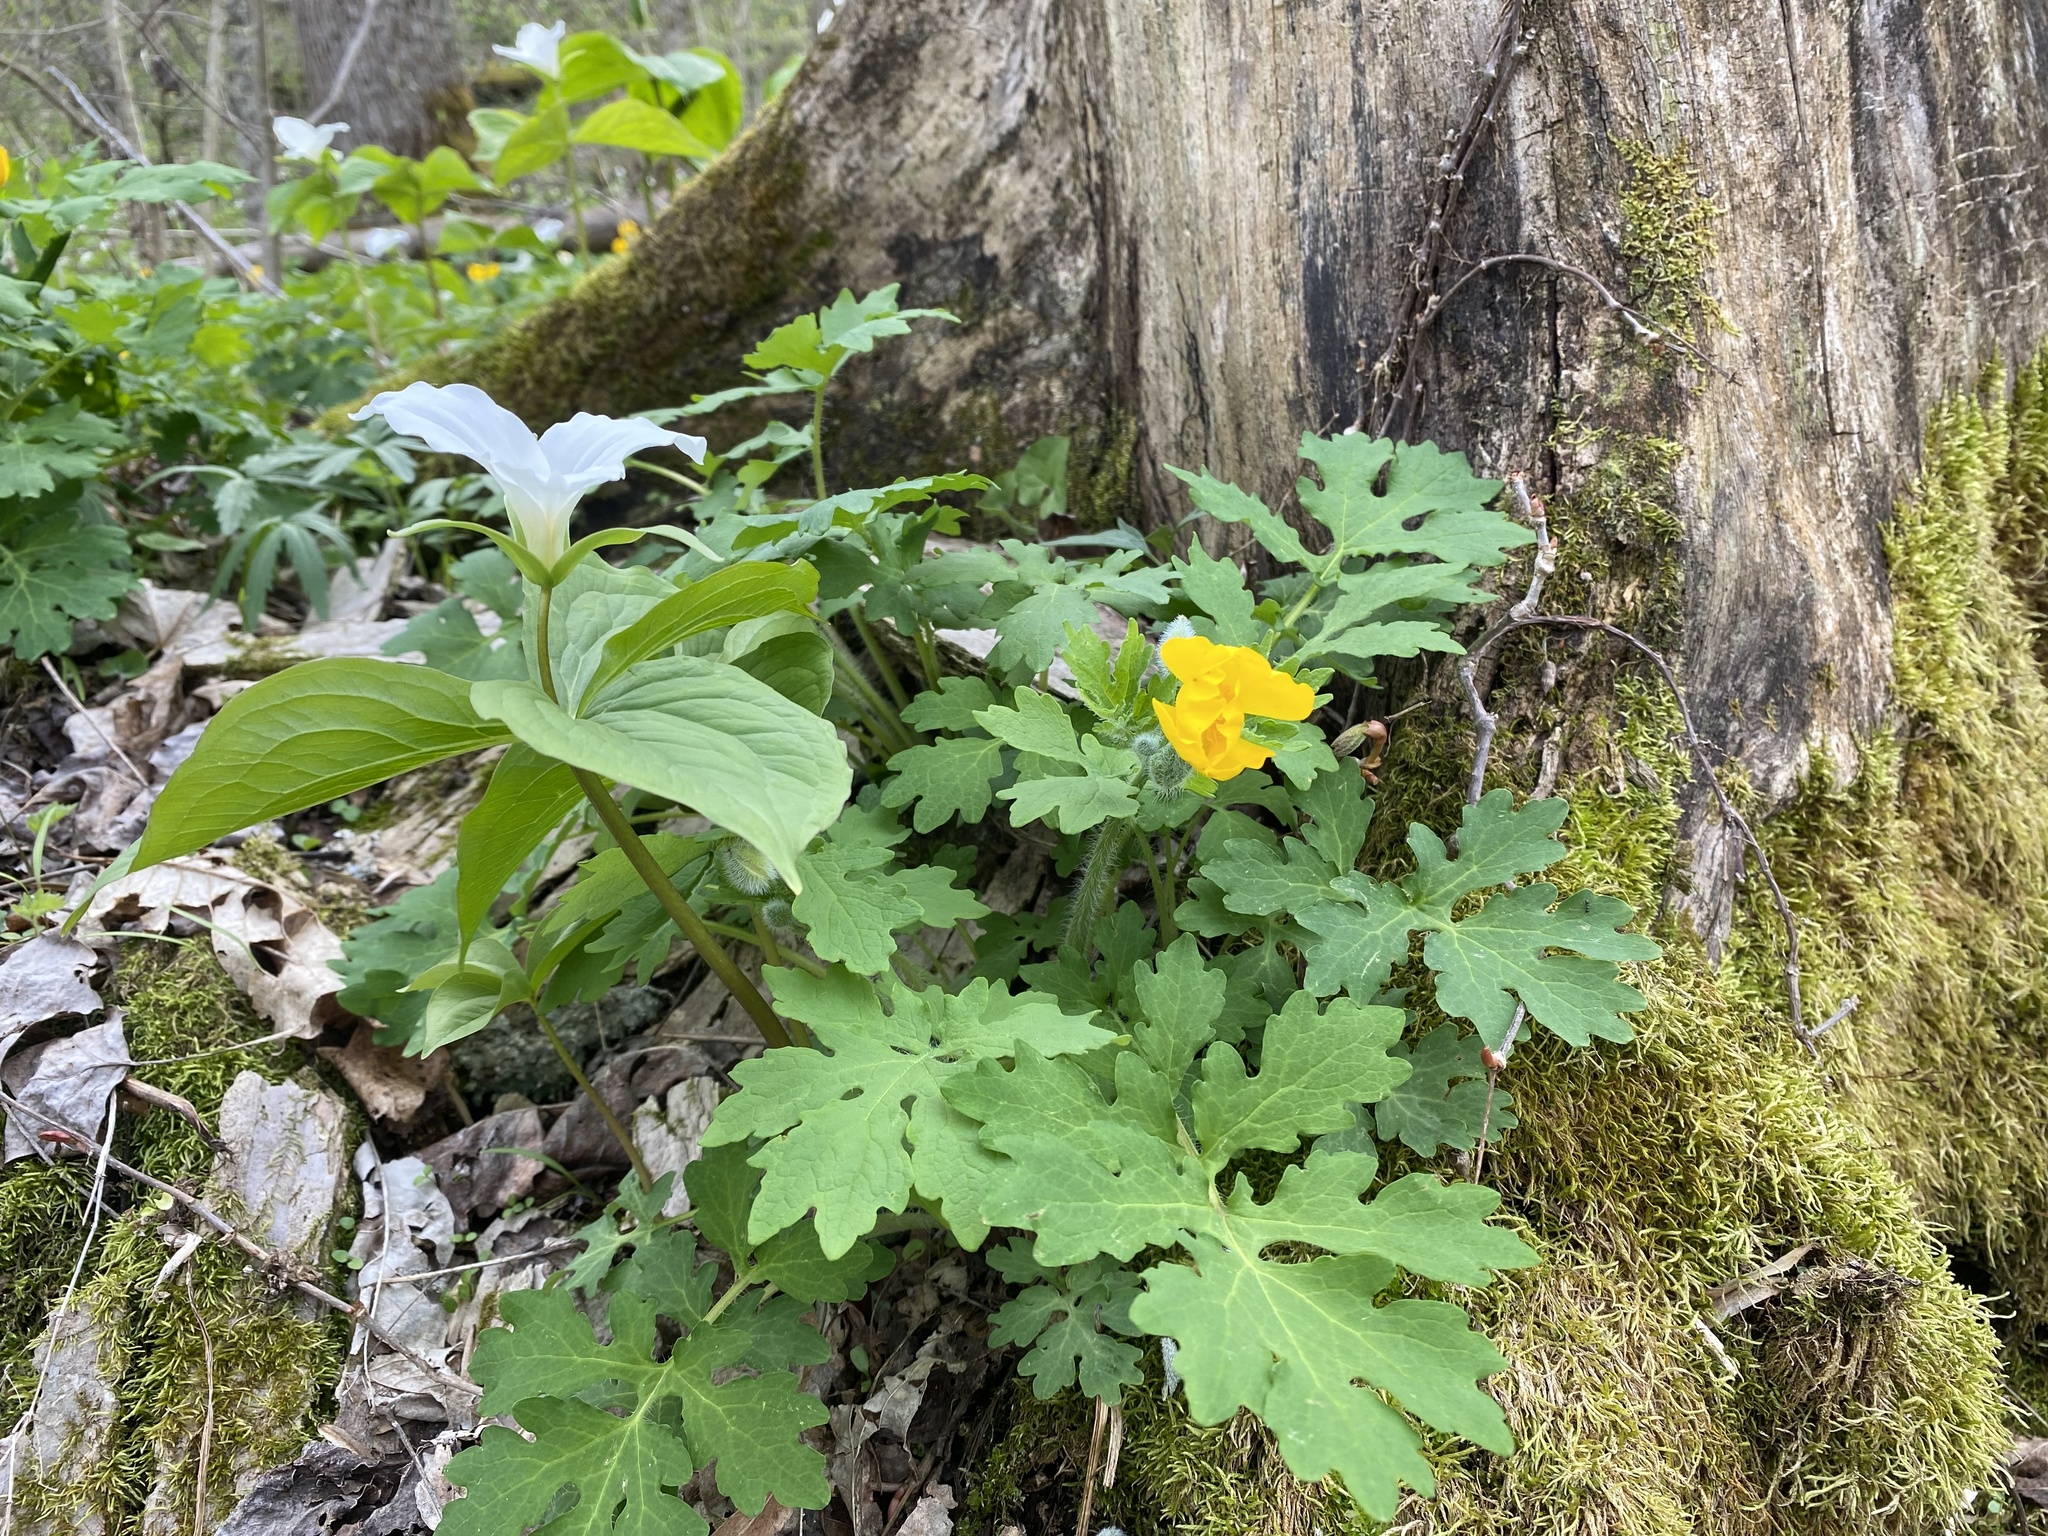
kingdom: Plantae
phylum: Tracheophyta
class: Magnoliopsida
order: Ranunculales
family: Papaveraceae
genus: Stylophorum
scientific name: Stylophorum diphyllum
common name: Celandine poppy
